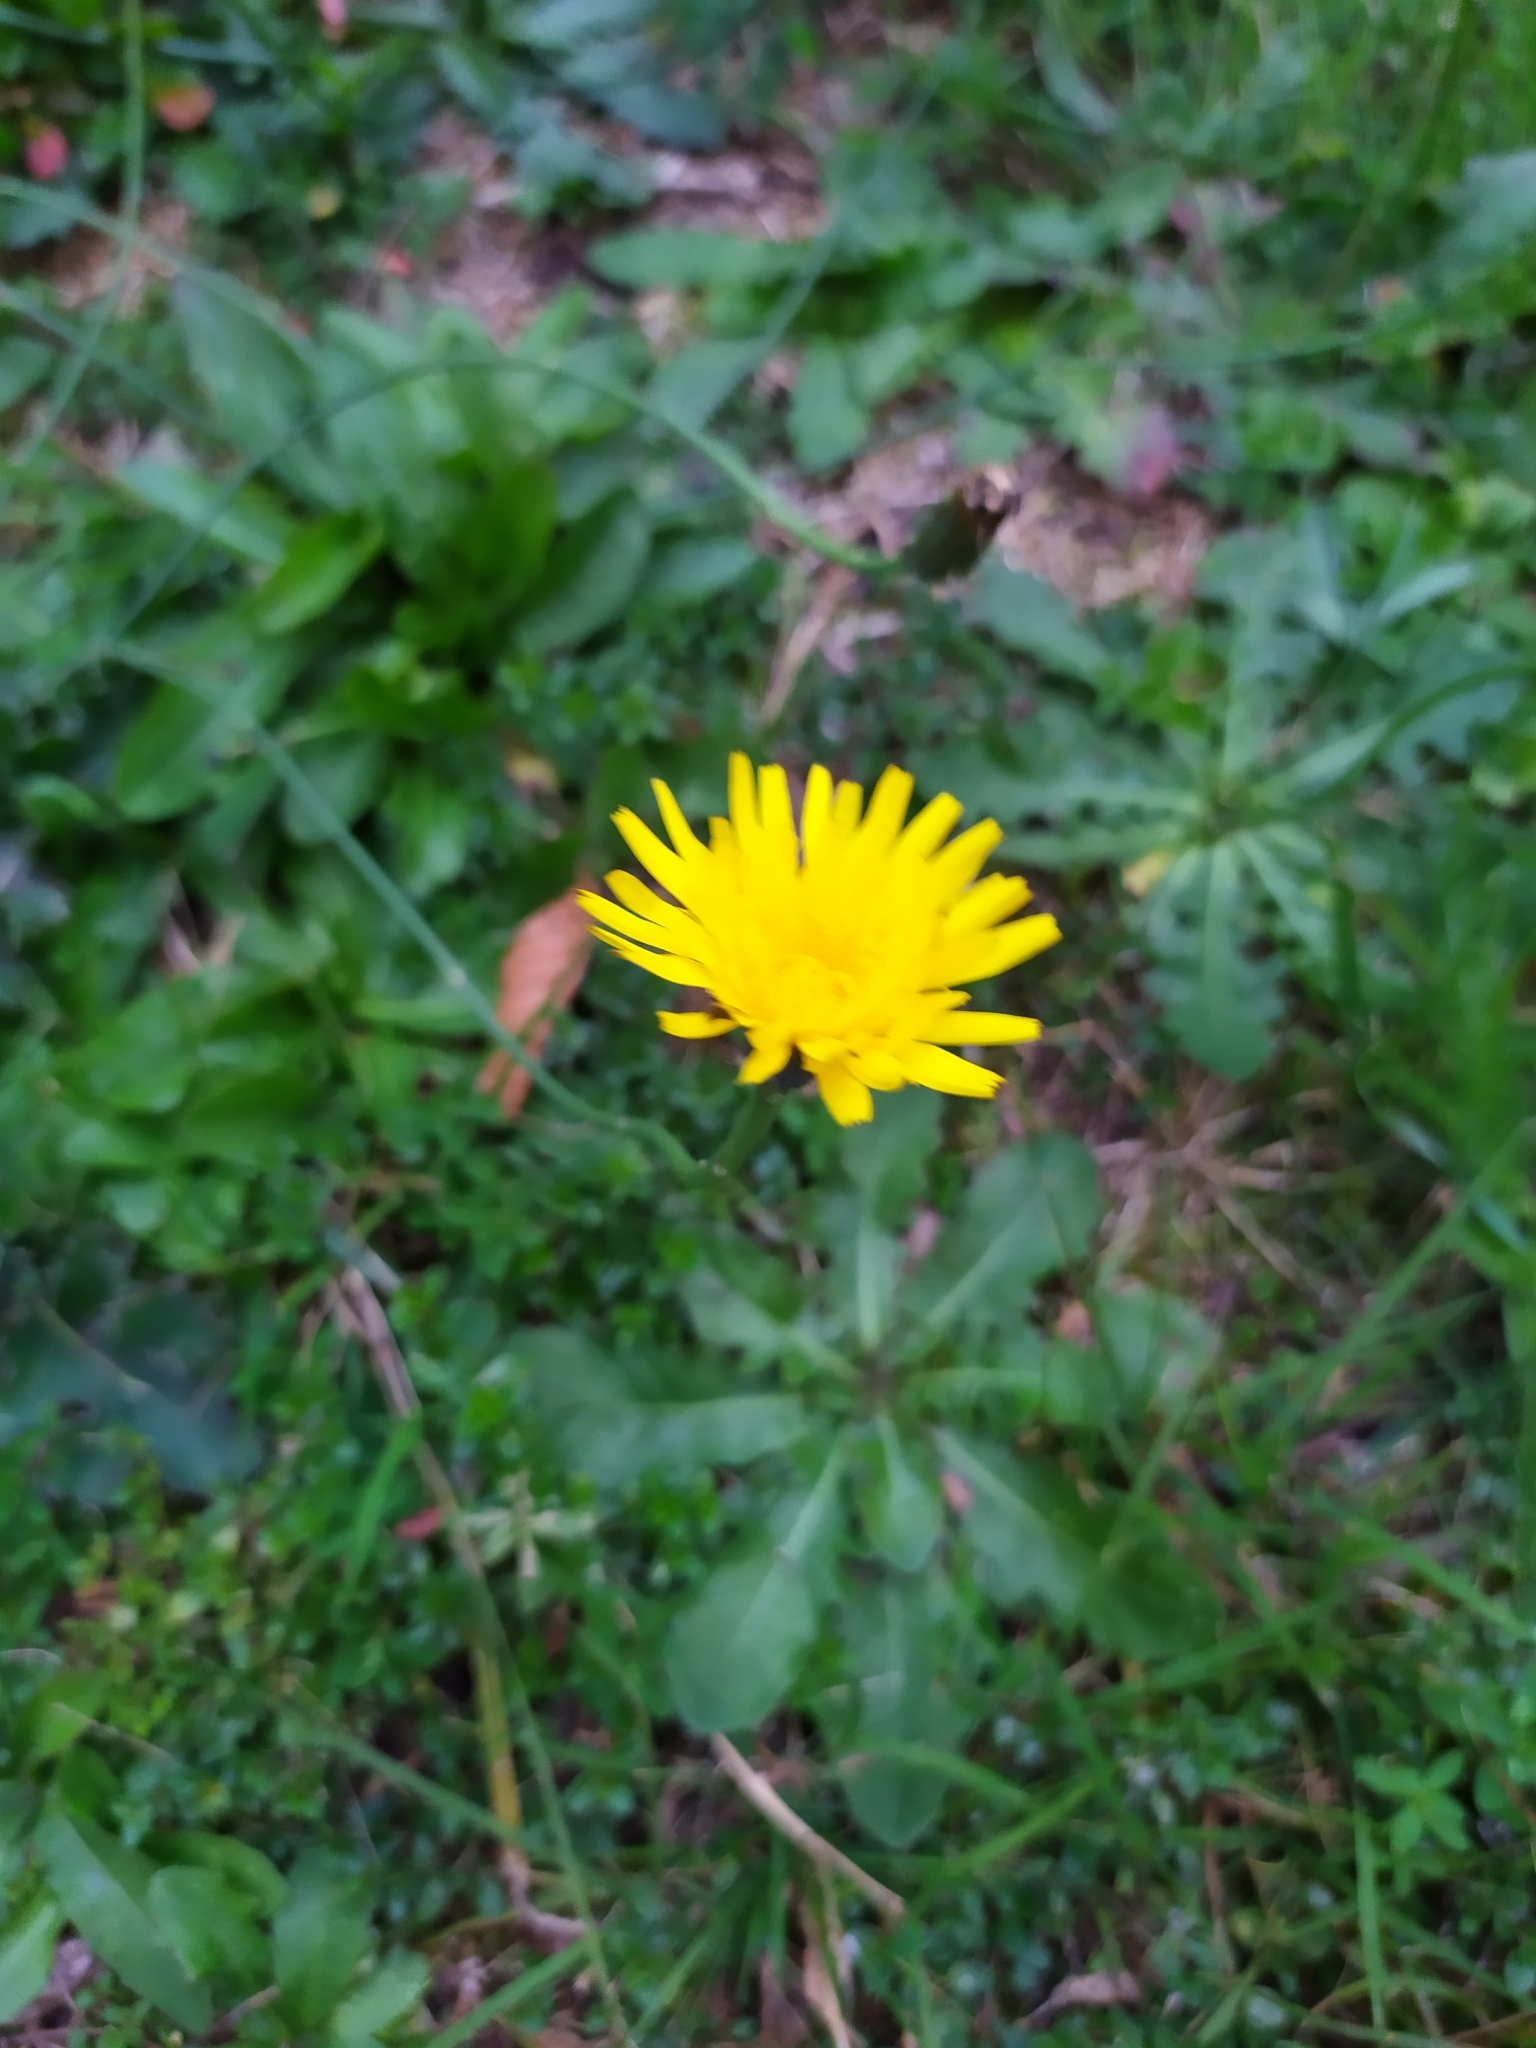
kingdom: Plantae
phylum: Tracheophyta
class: Magnoliopsida
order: Asterales
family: Asteraceae
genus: Hypochaeris
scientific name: Hypochaeris radicata
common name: Flatweed
